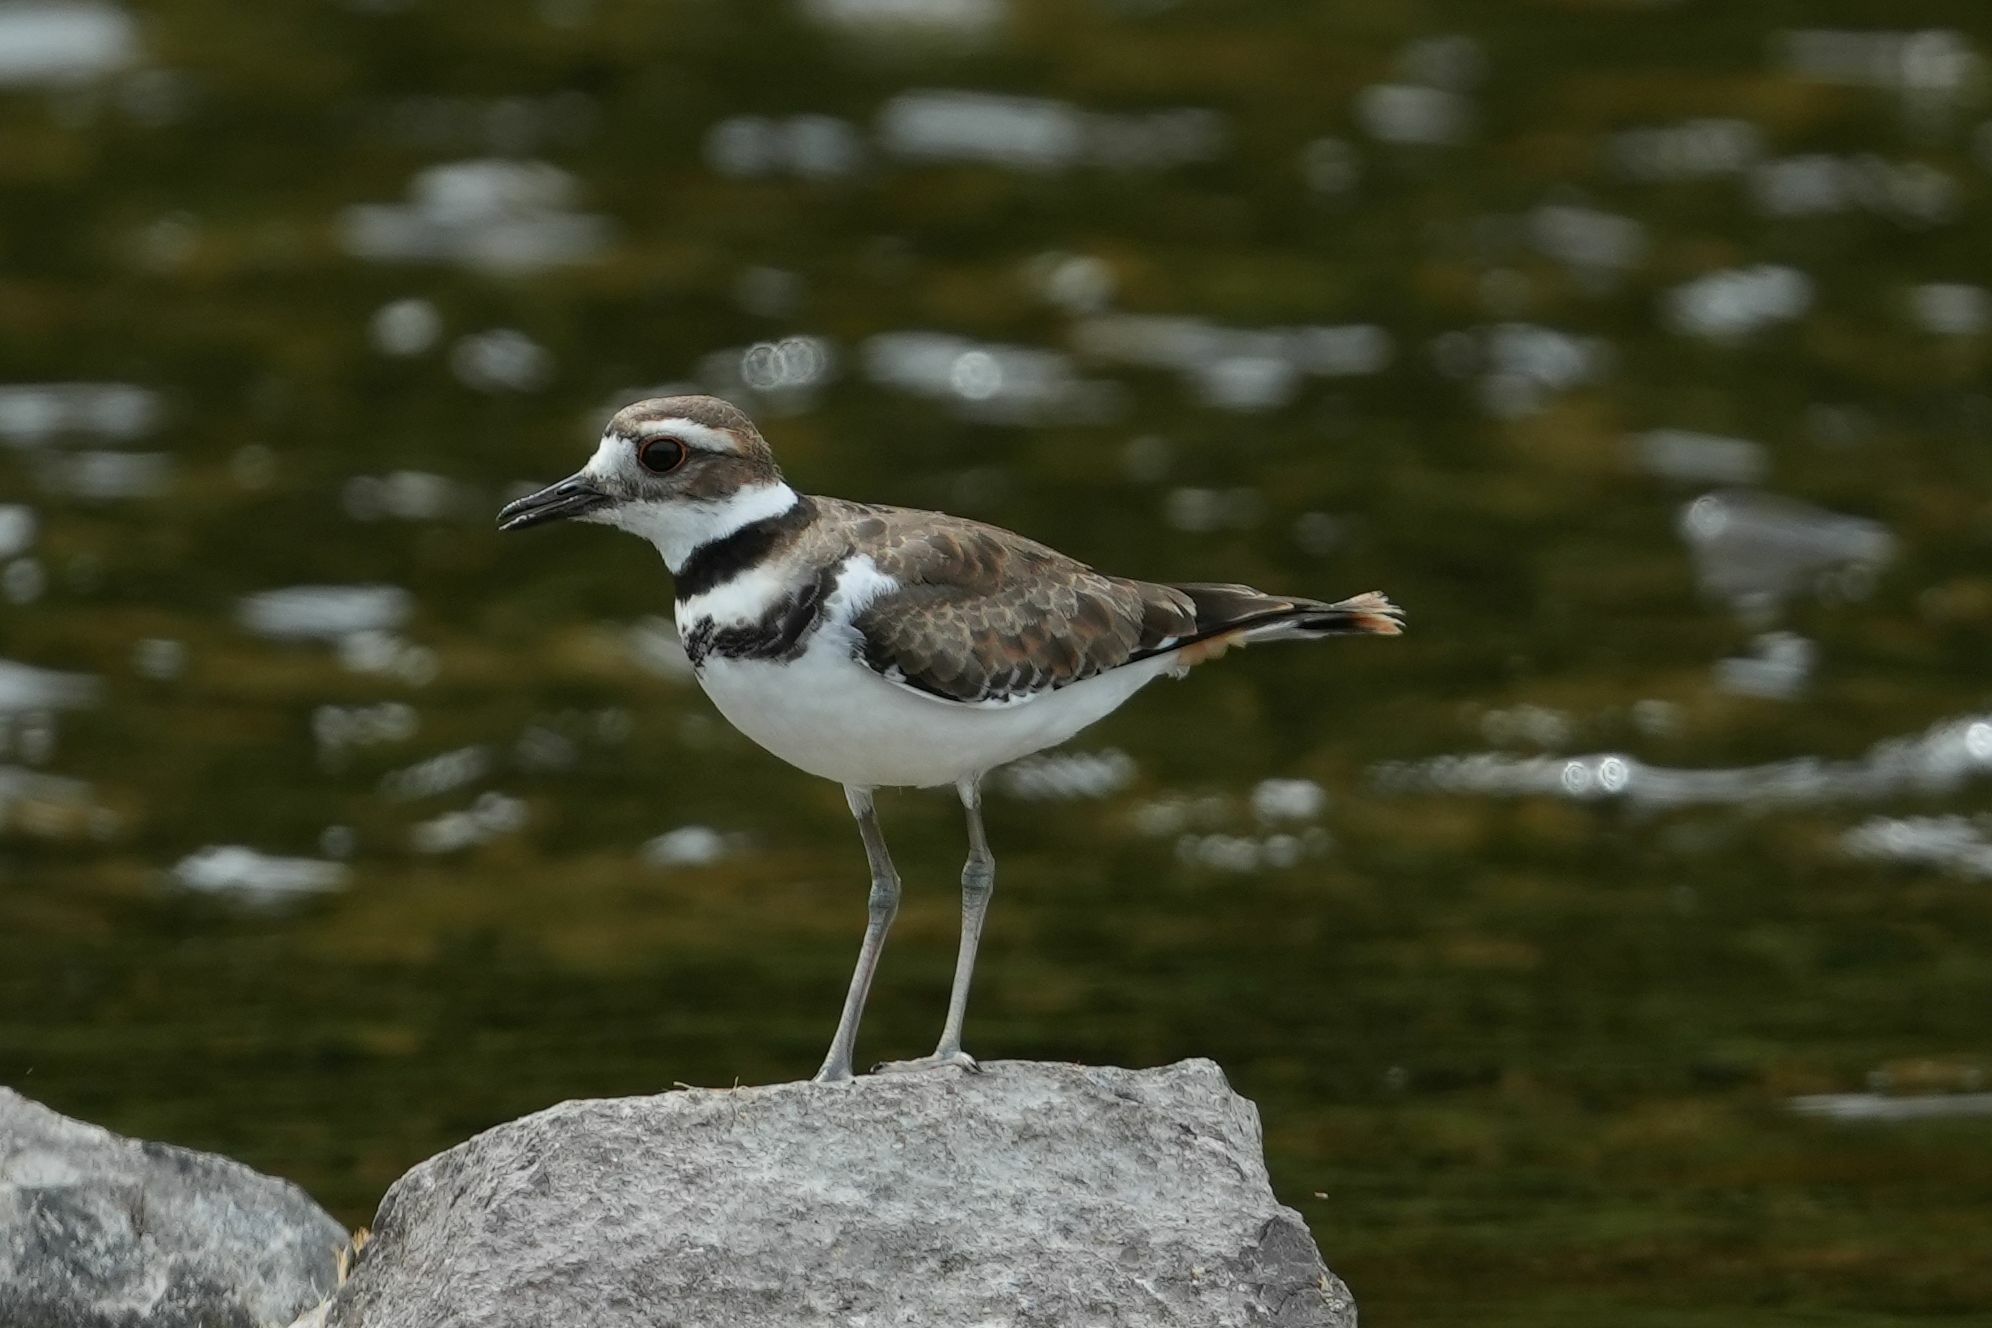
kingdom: Animalia
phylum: Chordata
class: Aves
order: Charadriiformes
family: Charadriidae
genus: Charadrius
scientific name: Charadrius vociferus
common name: Killdeer
